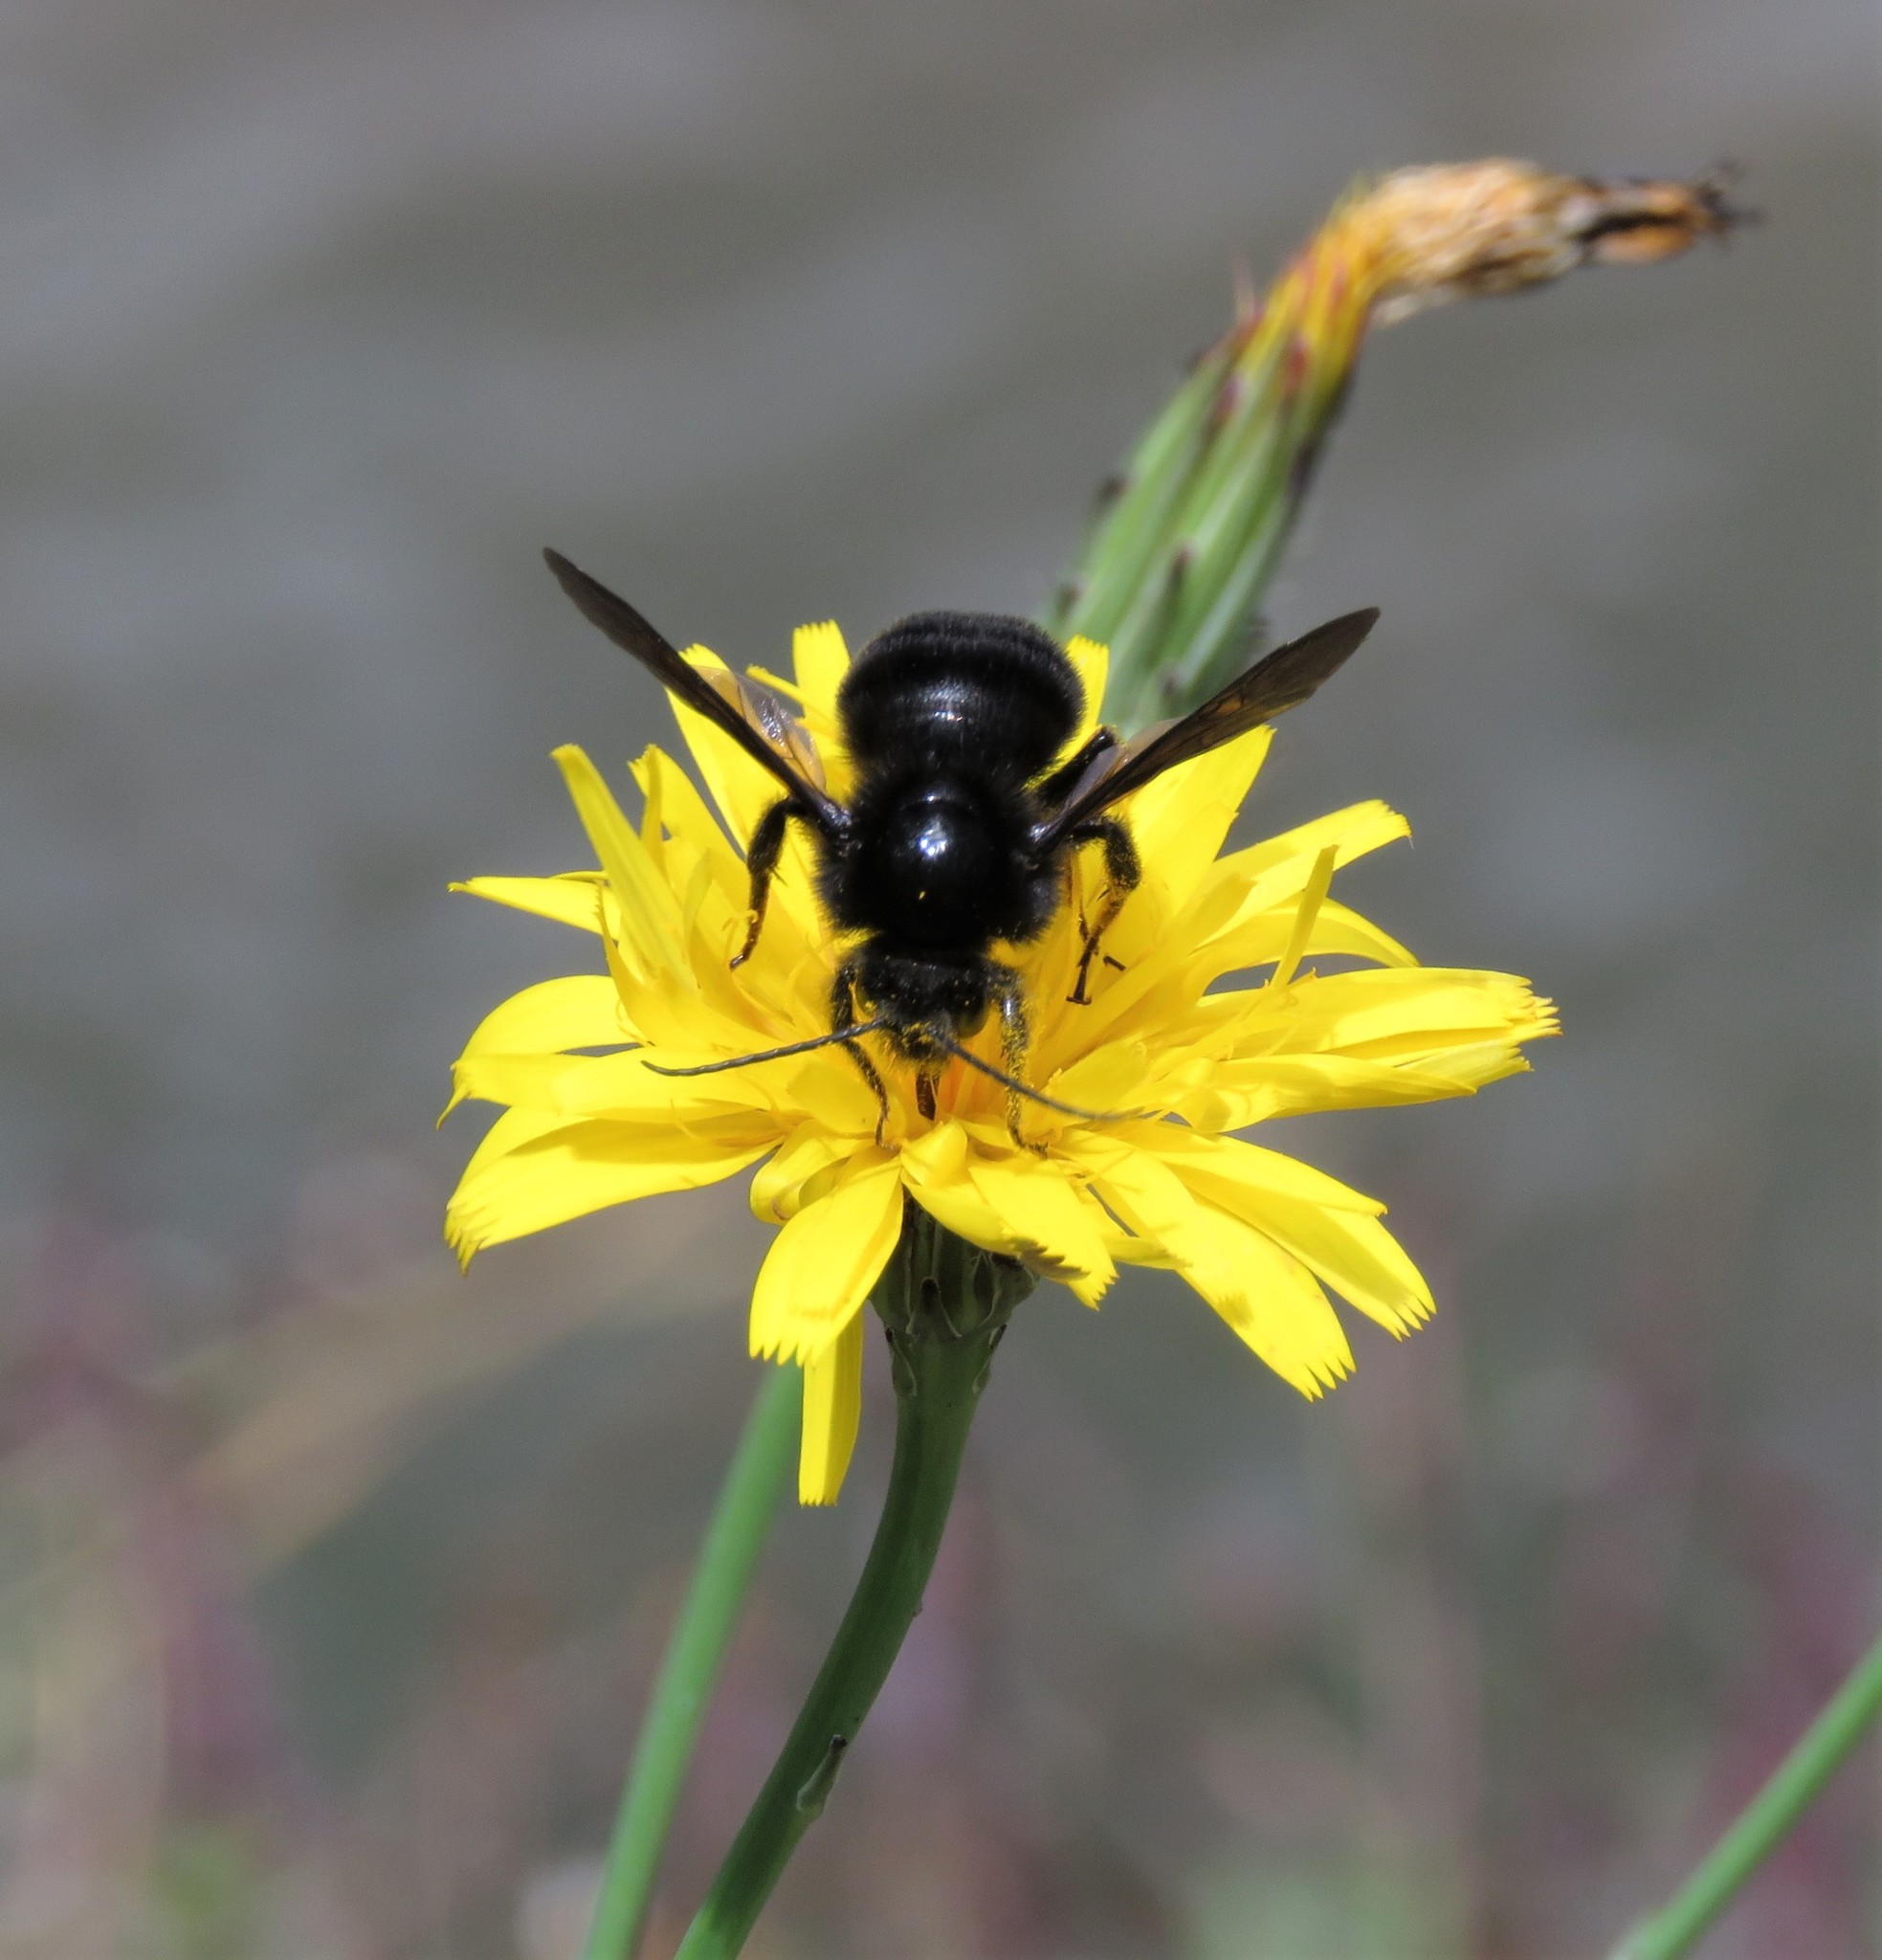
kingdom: Animalia
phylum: Arthropoda
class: Insecta
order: Hymenoptera
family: Apidae
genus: Bombus
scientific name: Bombus pauloensis
